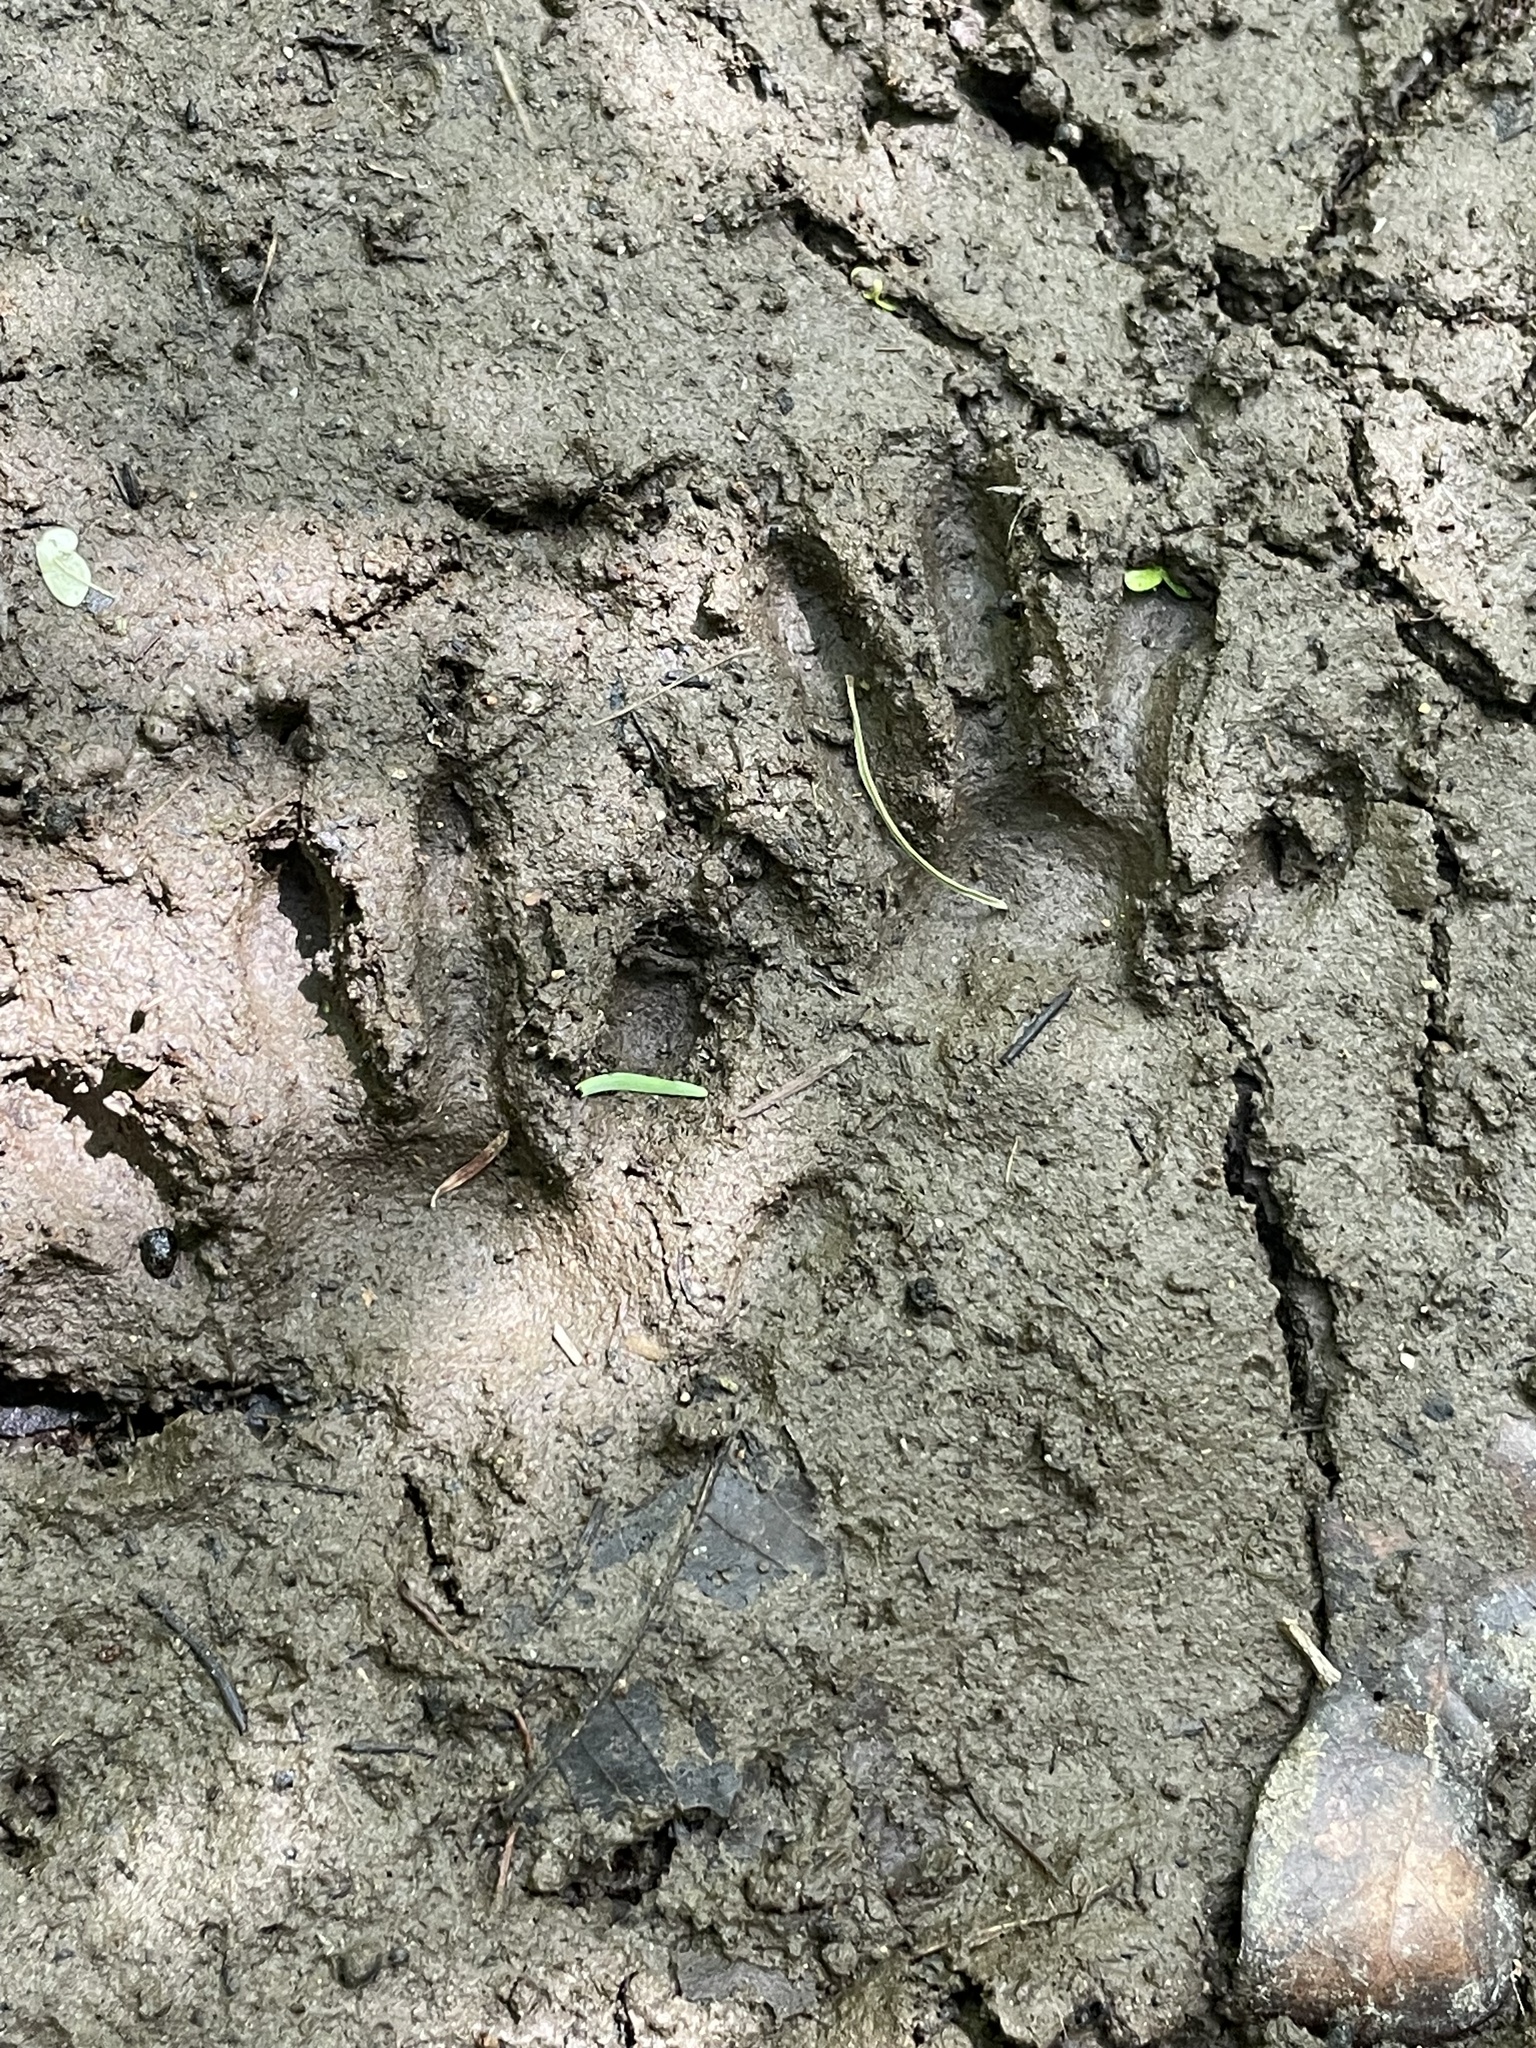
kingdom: Animalia
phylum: Chordata
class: Mammalia
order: Carnivora
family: Procyonidae
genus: Procyon
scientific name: Procyon lotor
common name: Raccoon
